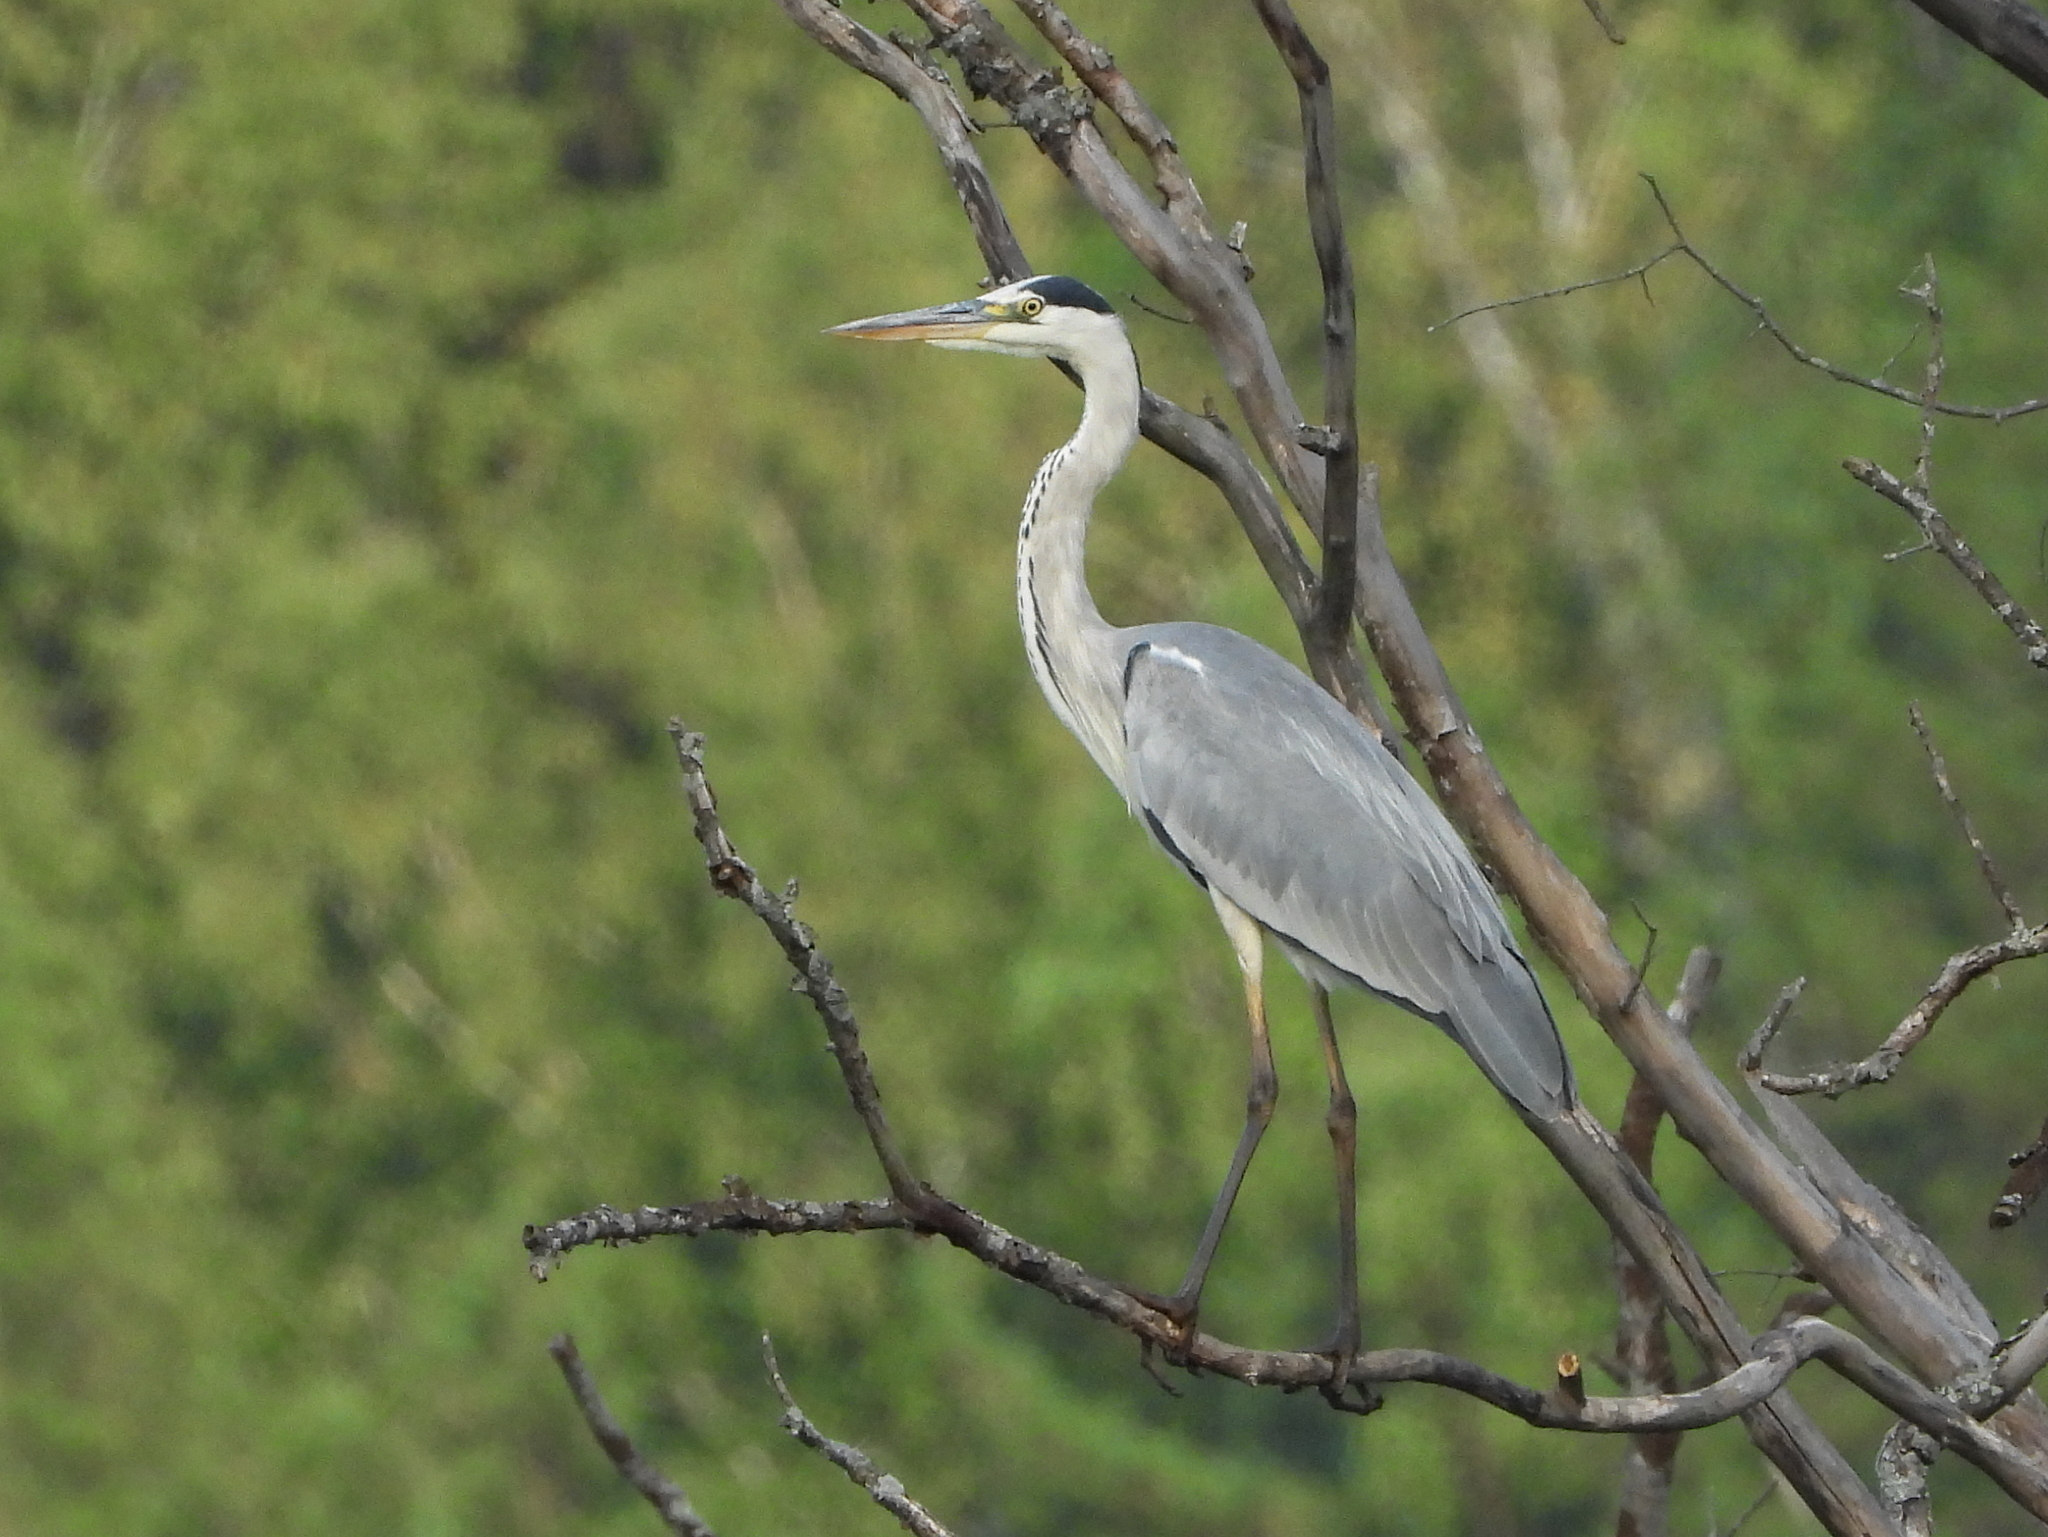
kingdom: Animalia
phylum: Chordata
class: Aves
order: Pelecaniformes
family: Ardeidae
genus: Ardea
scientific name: Ardea cinerea
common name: Grey heron
